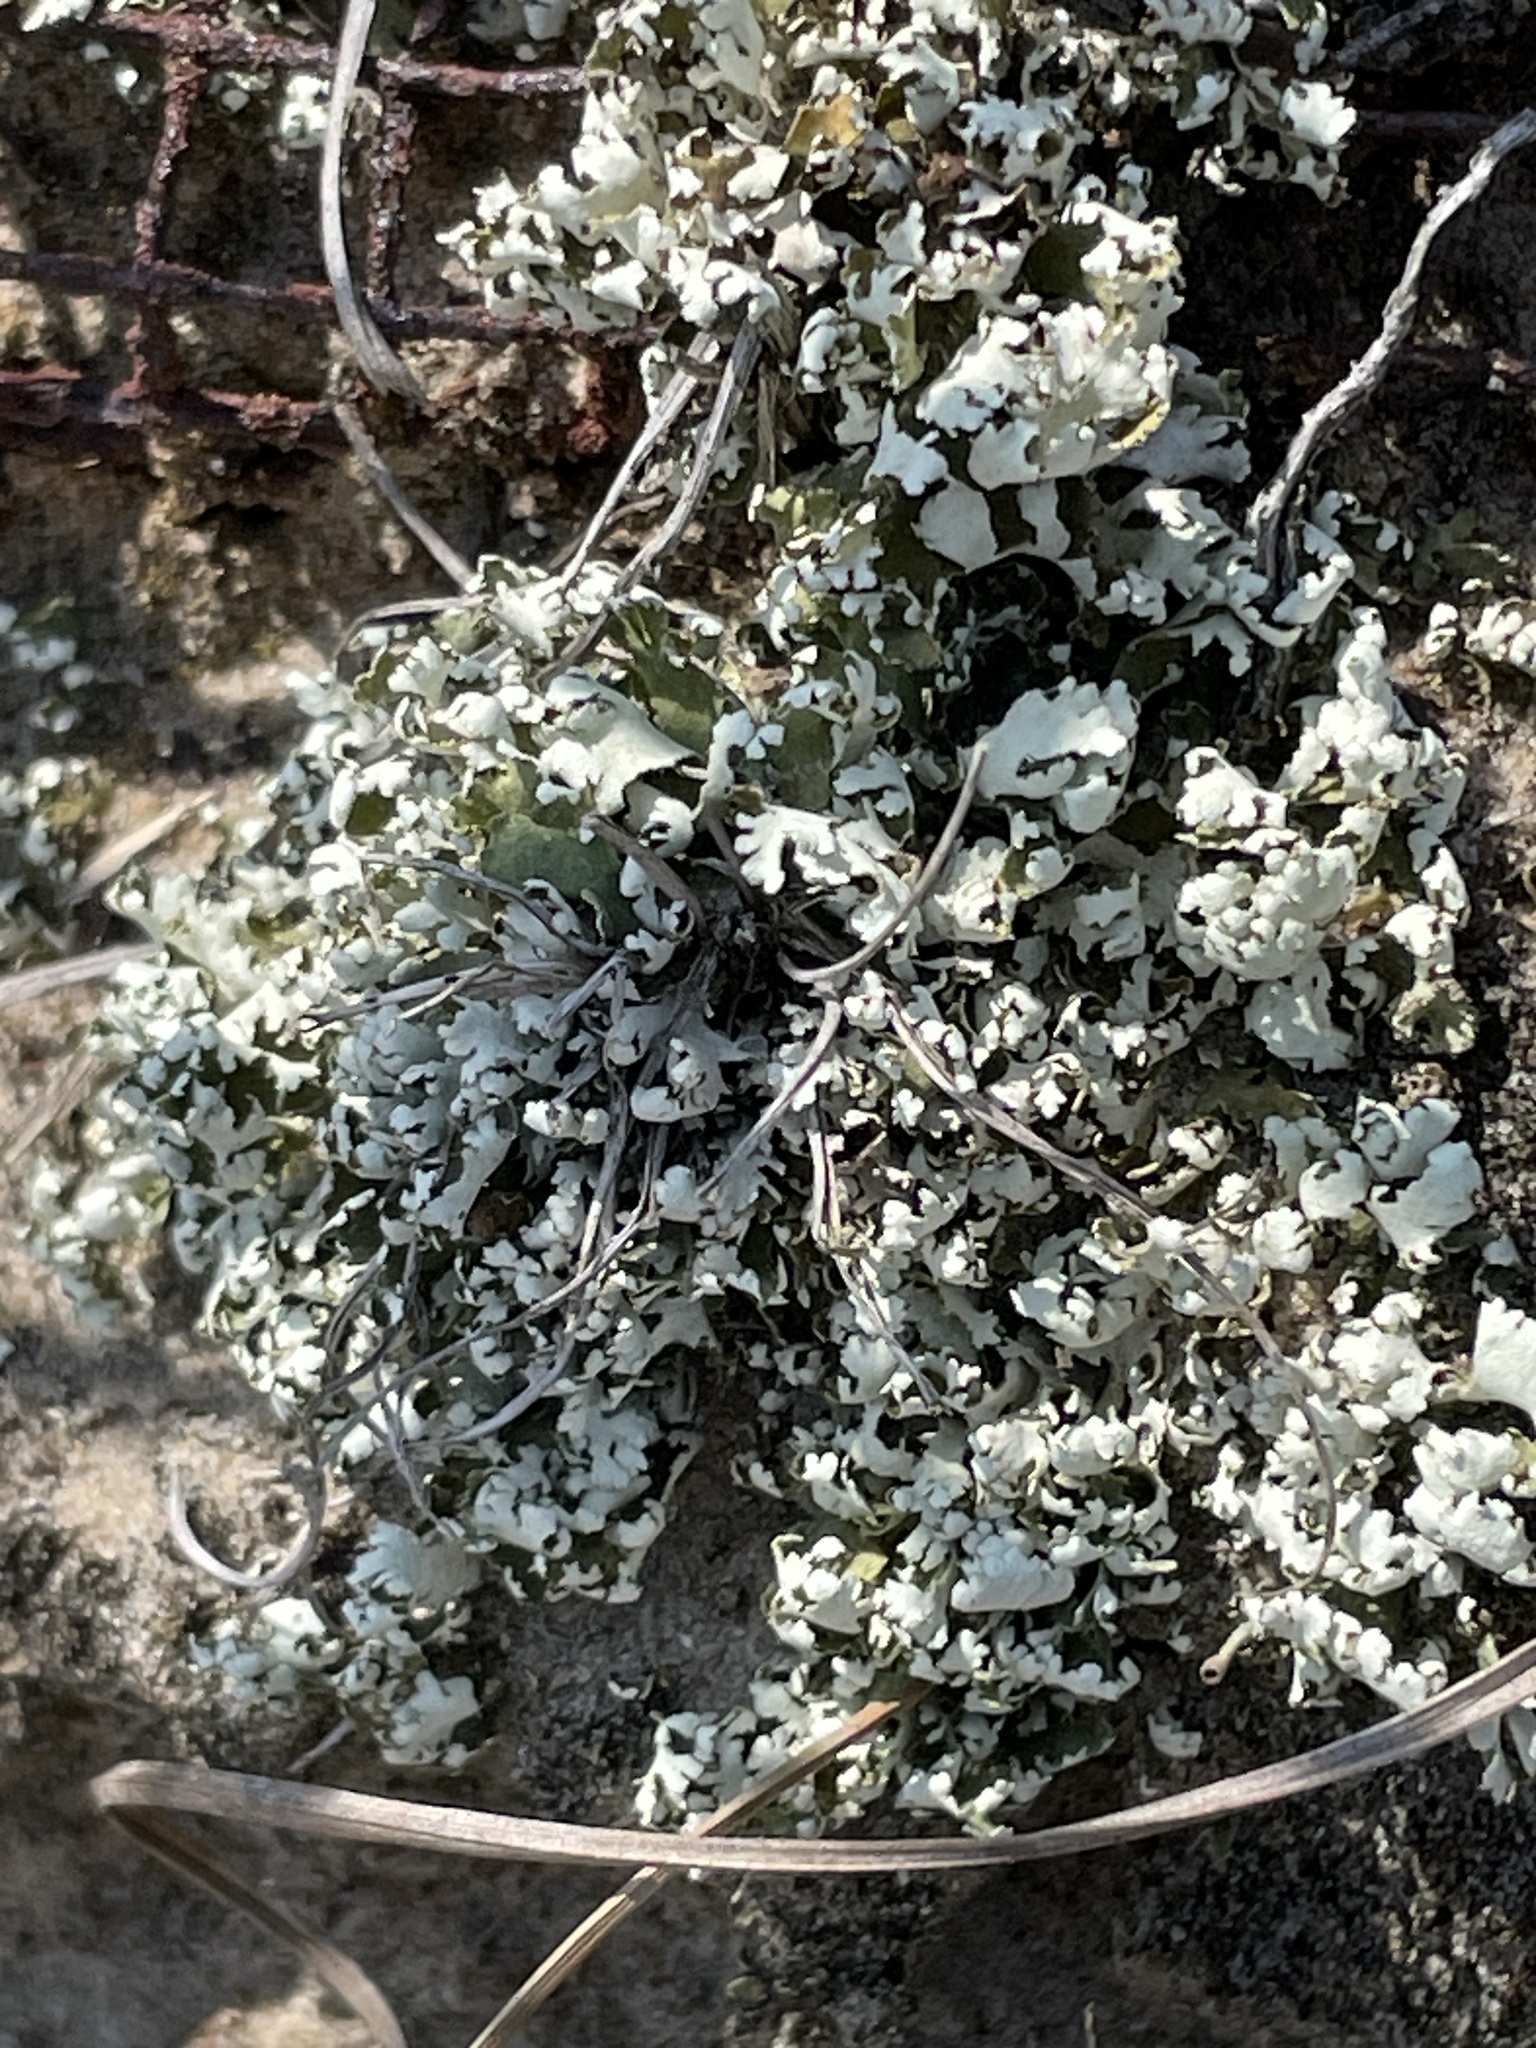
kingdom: Fungi
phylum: Ascomycota
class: Lecanoromycetes
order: Lecanorales
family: Cladoniaceae
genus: Cladonia
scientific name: Cladonia foliacea
